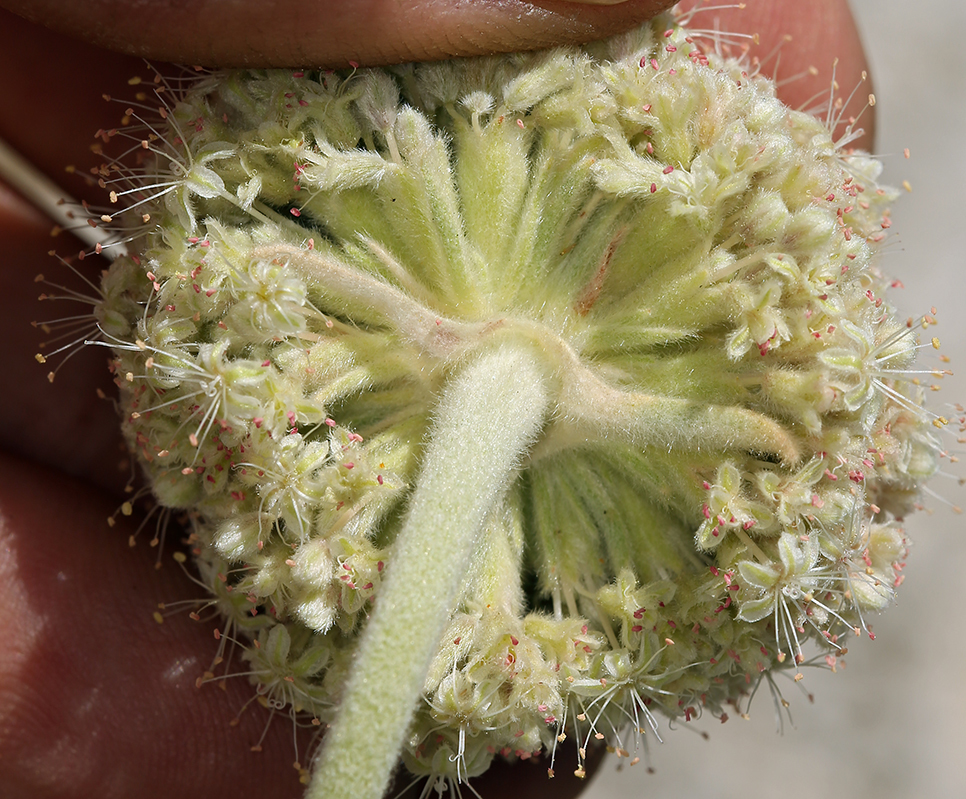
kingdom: Plantae
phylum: Tracheophyta
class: Magnoliopsida
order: Caryophyllales
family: Polygonaceae
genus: Eriogonum
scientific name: Eriogonum callistum
